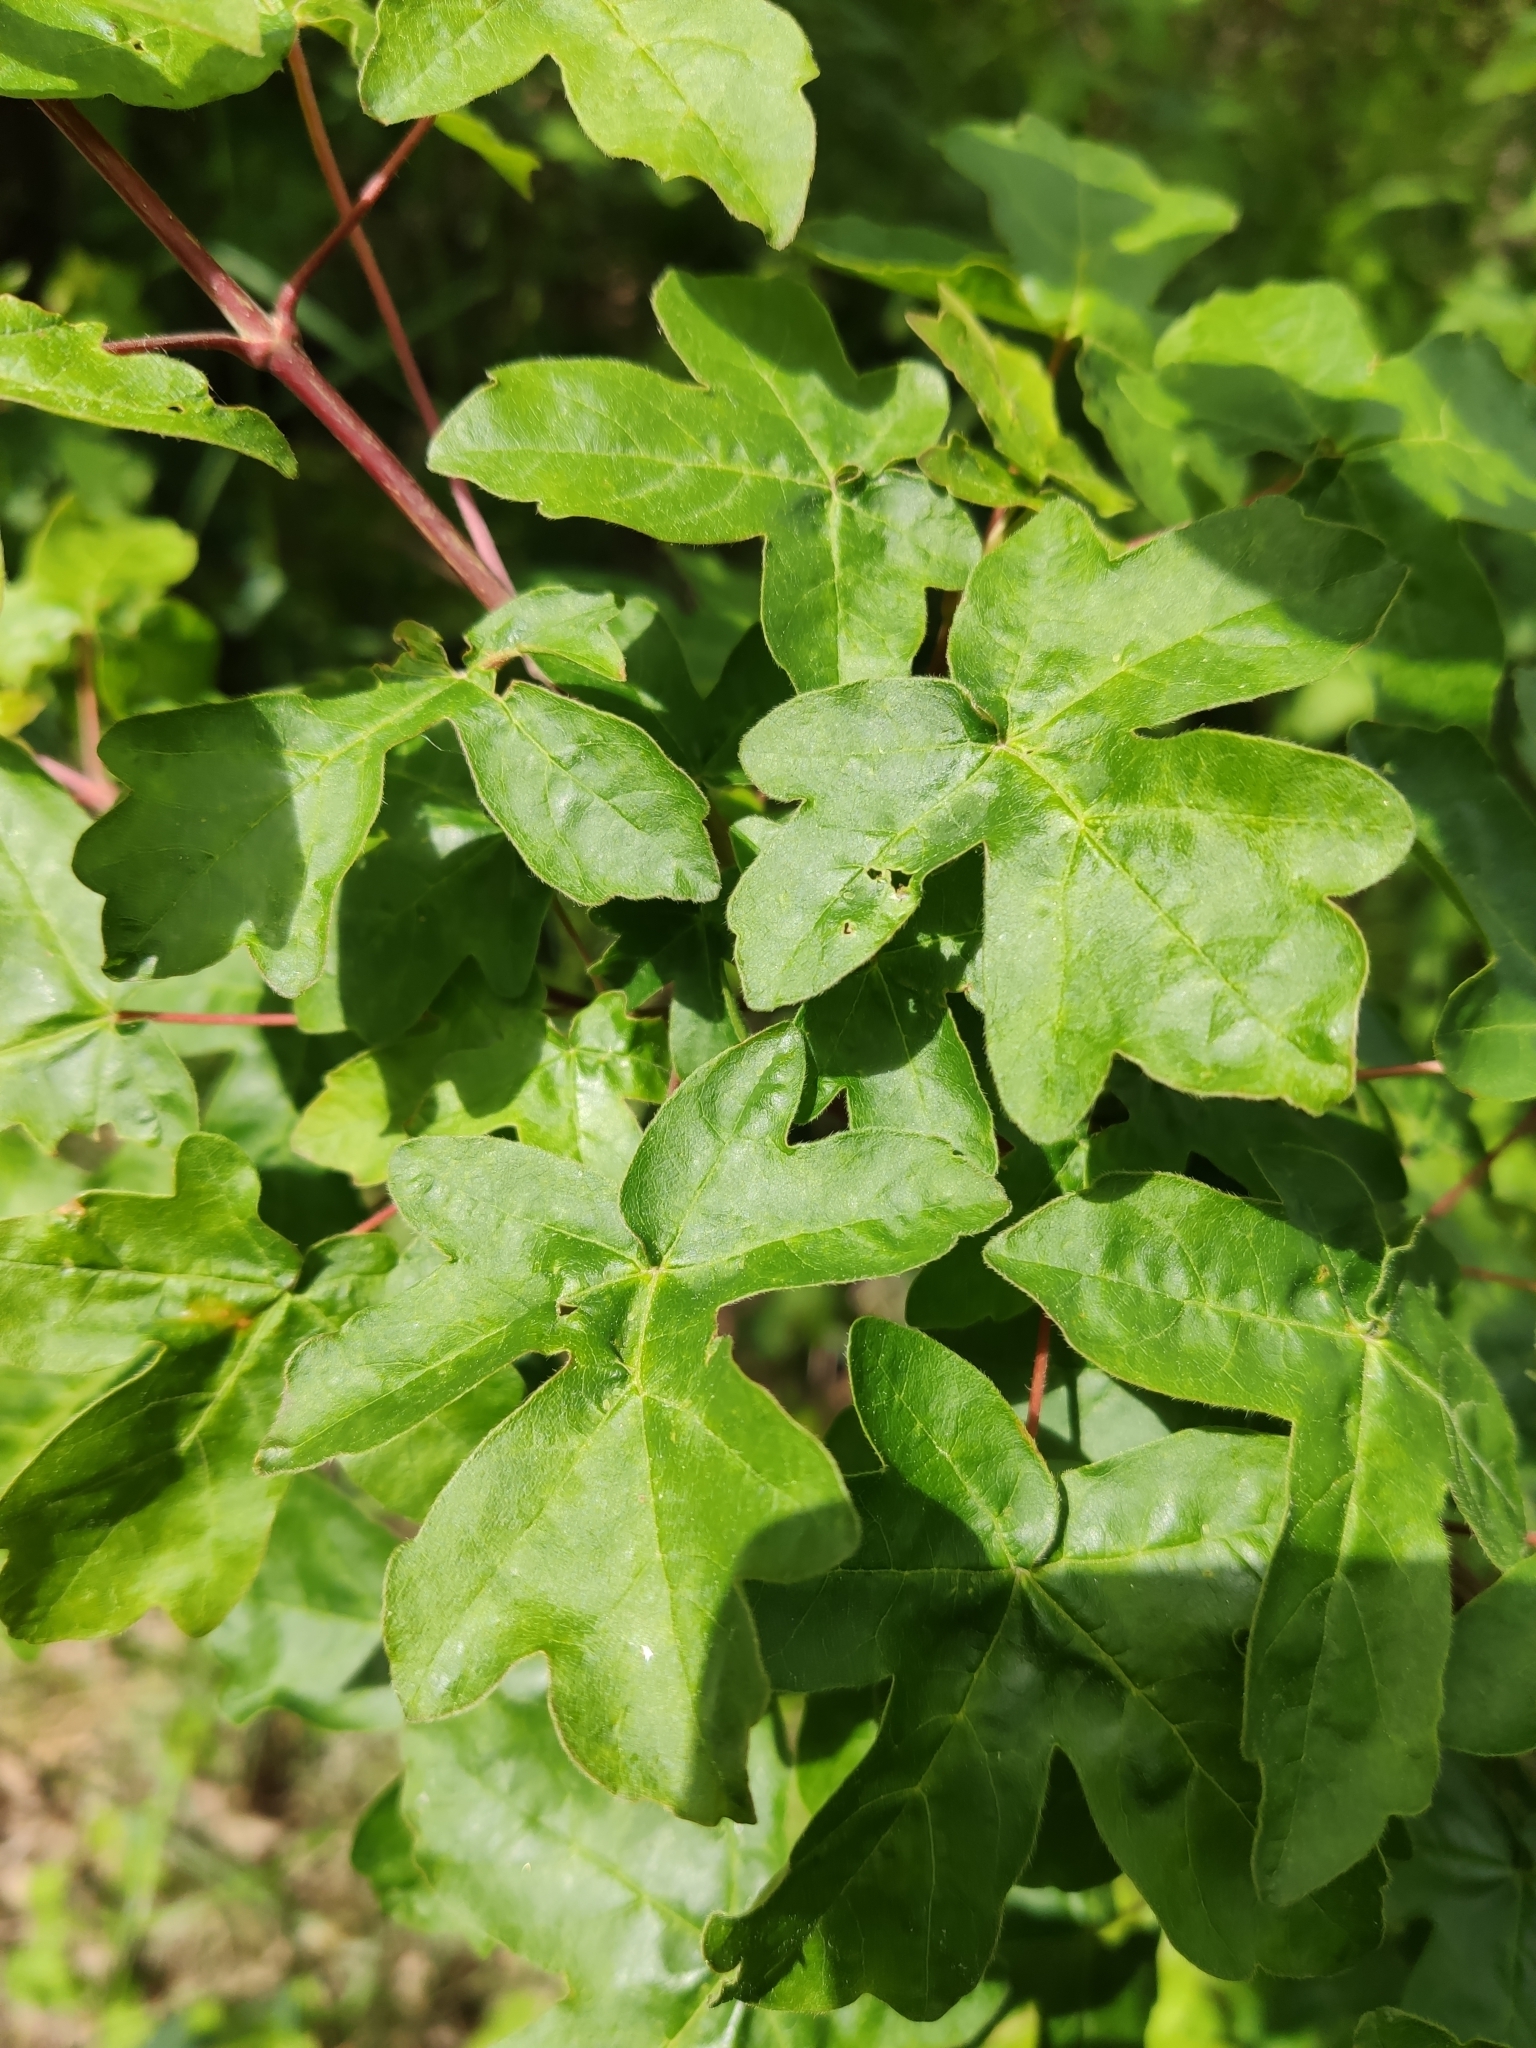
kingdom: Plantae
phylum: Tracheophyta
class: Magnoliopsida
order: Sapindales
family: Sapindaceae
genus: Acer
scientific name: Acer campestre
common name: Field maple
